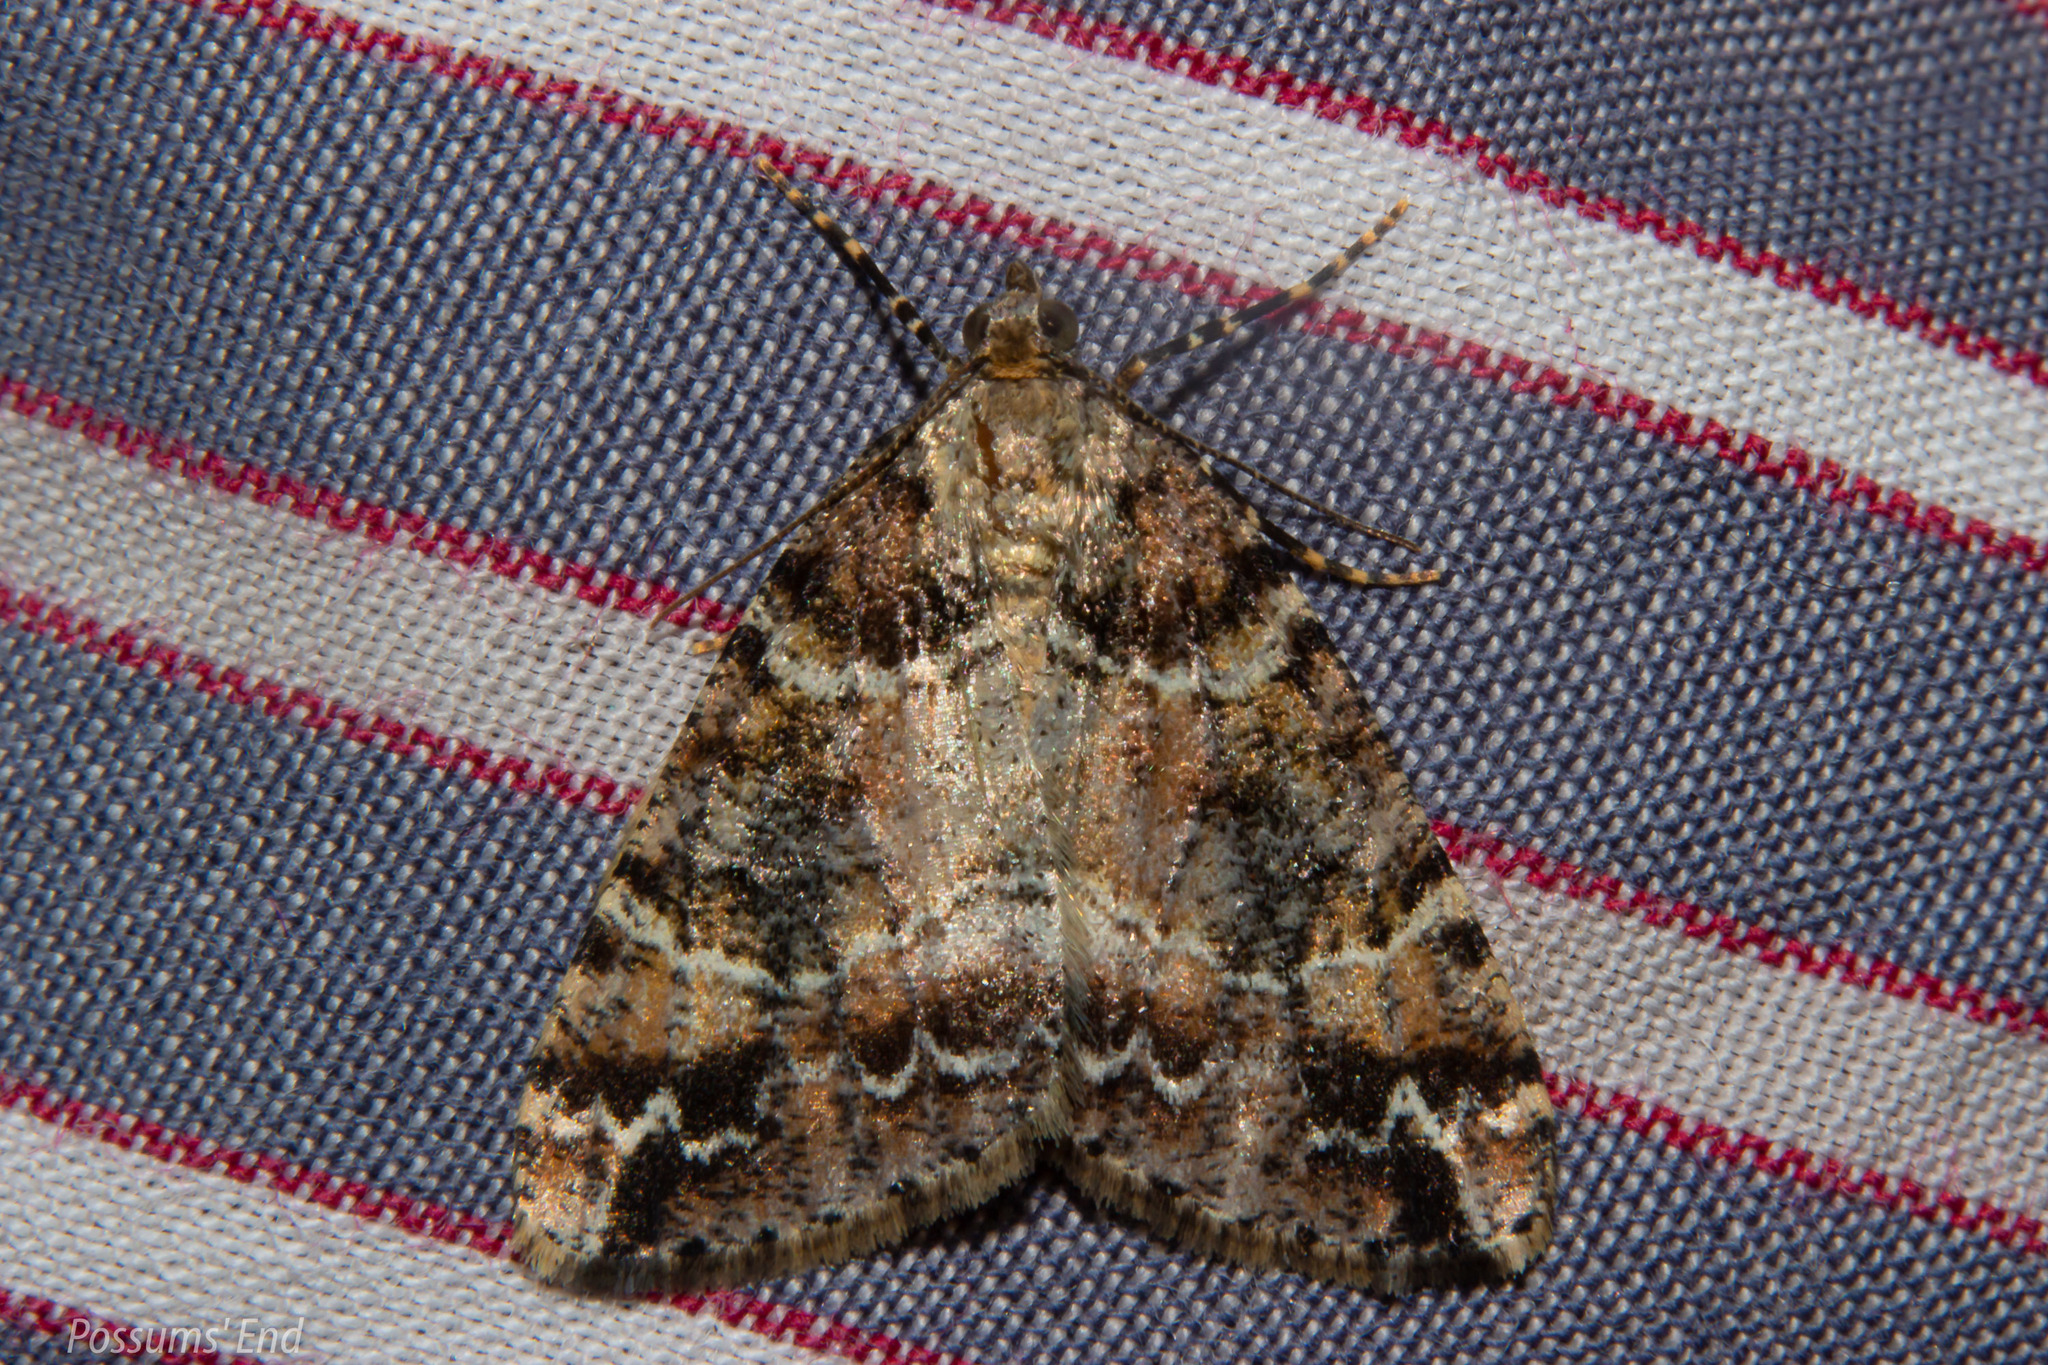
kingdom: Animalia
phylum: Arthropoda
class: Insecta
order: Lepidoptera
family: Geometridae
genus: Pseudocoremia
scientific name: Pseudocoremia productata
